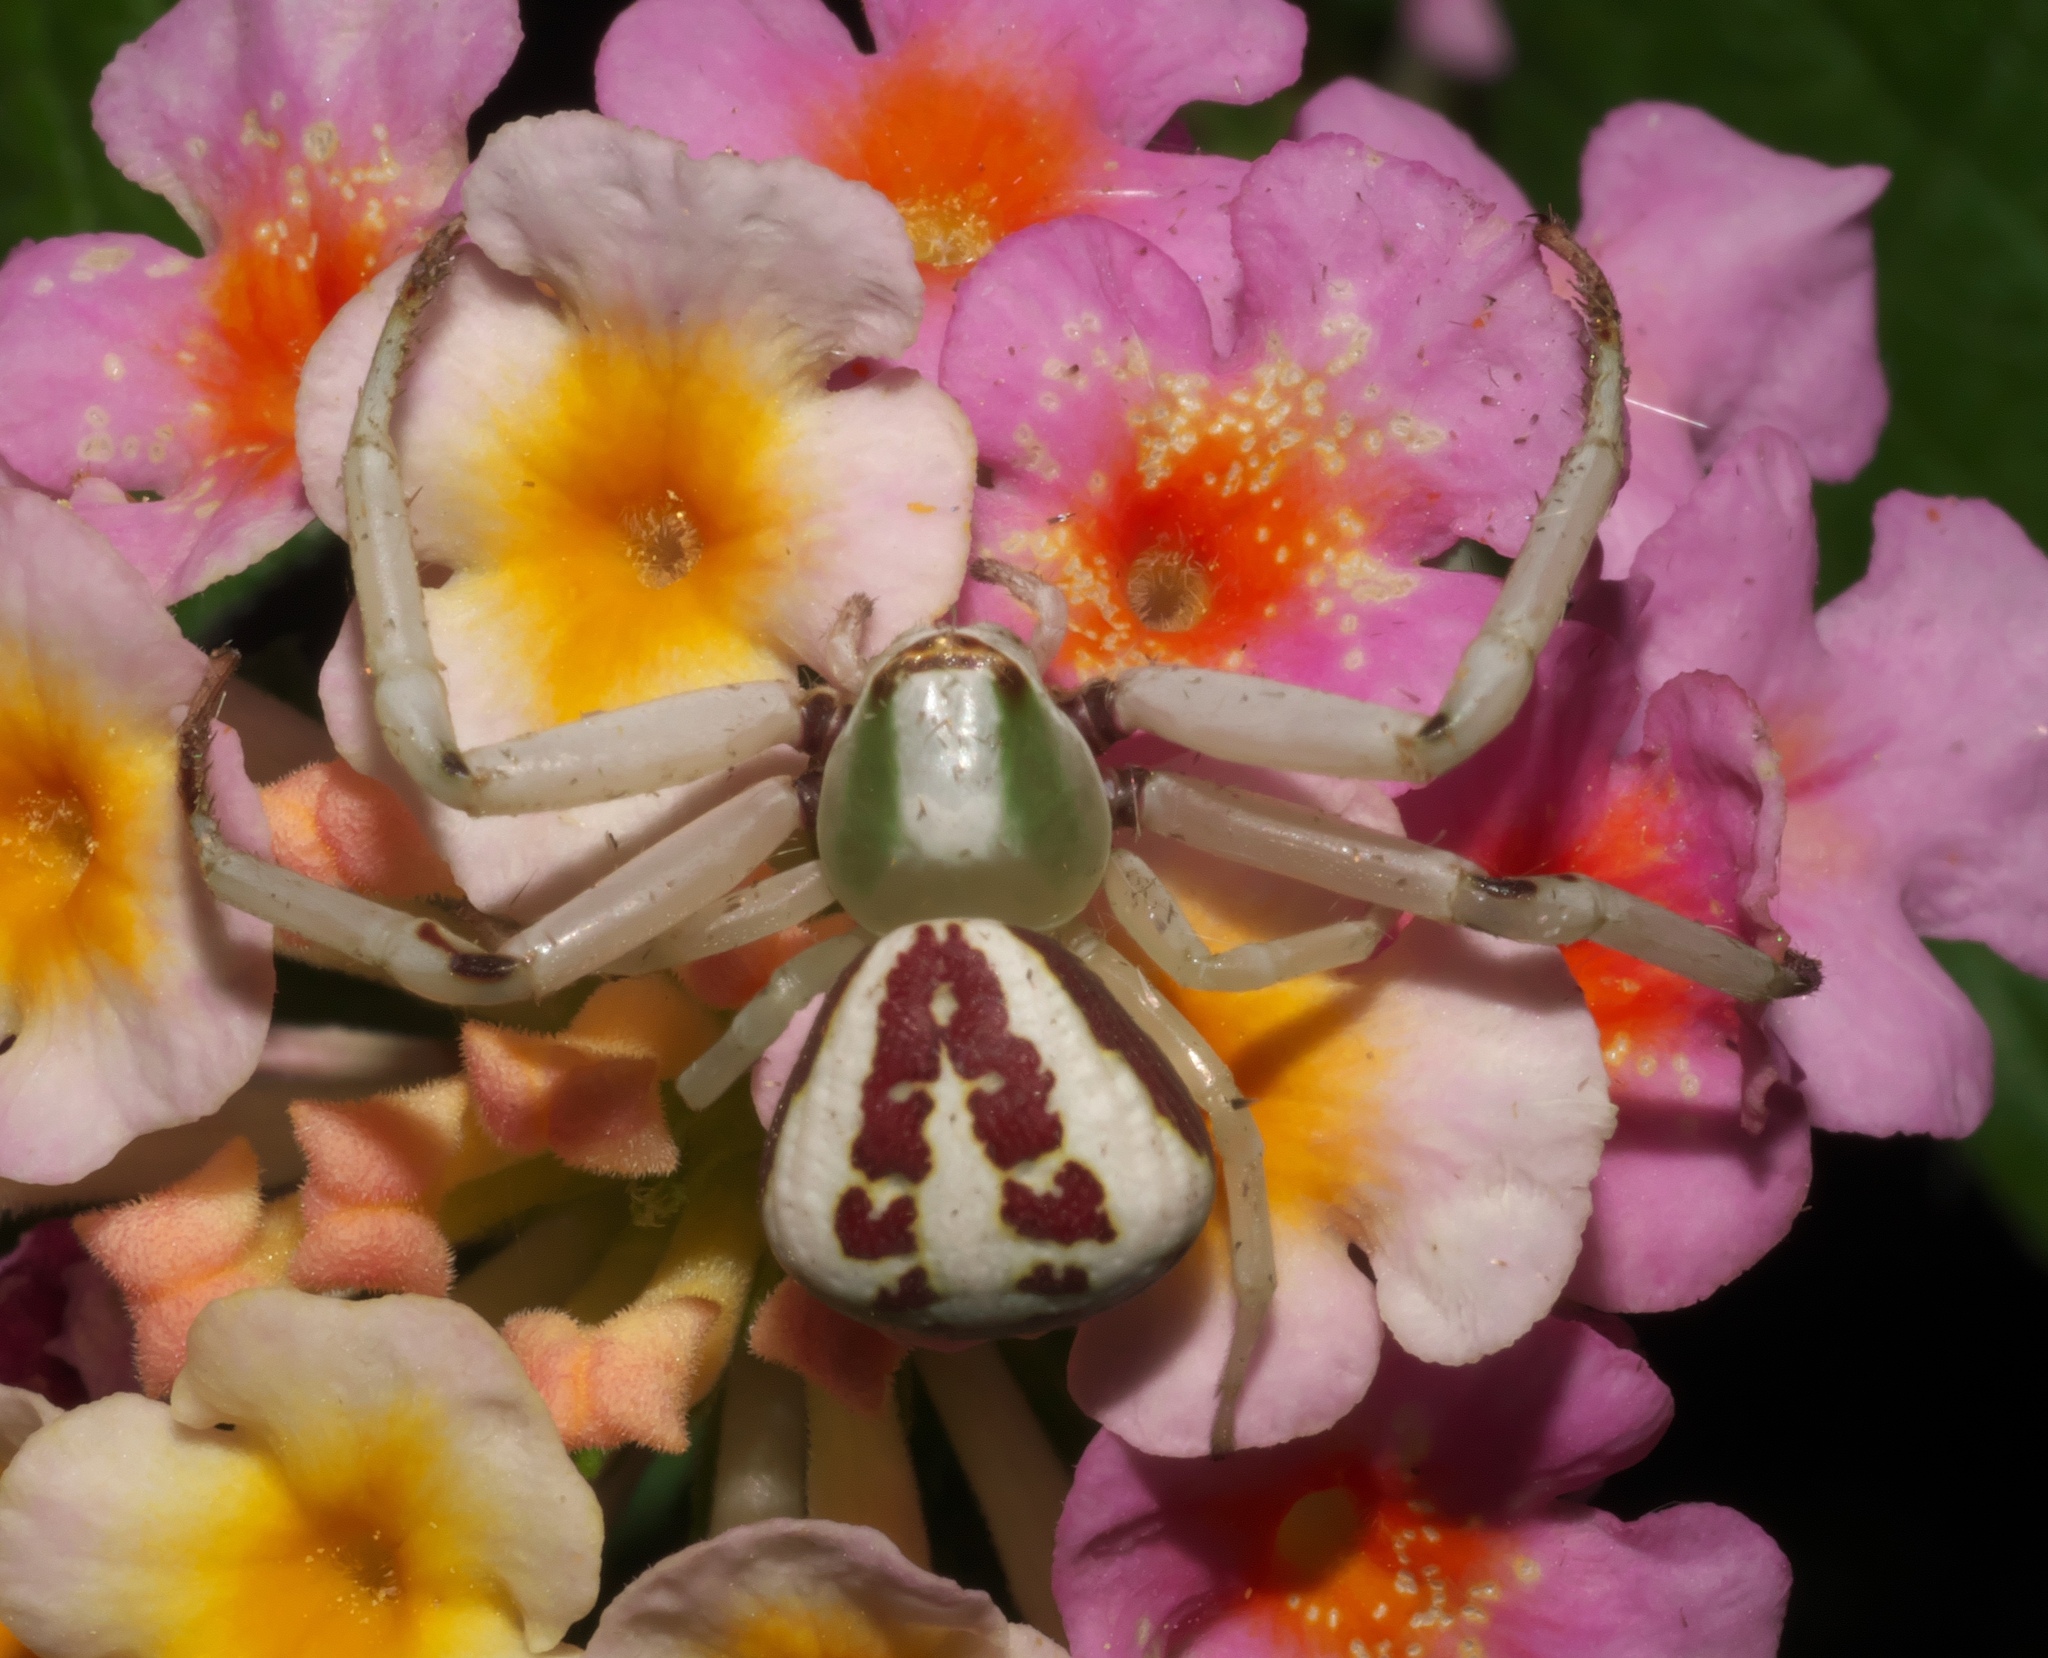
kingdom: Animalia
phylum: Arthropoda
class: Arachnida
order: Araneae
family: Thomisidae
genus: Misumenoides
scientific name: Misumenoides formosipes
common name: White-banded crab spider
